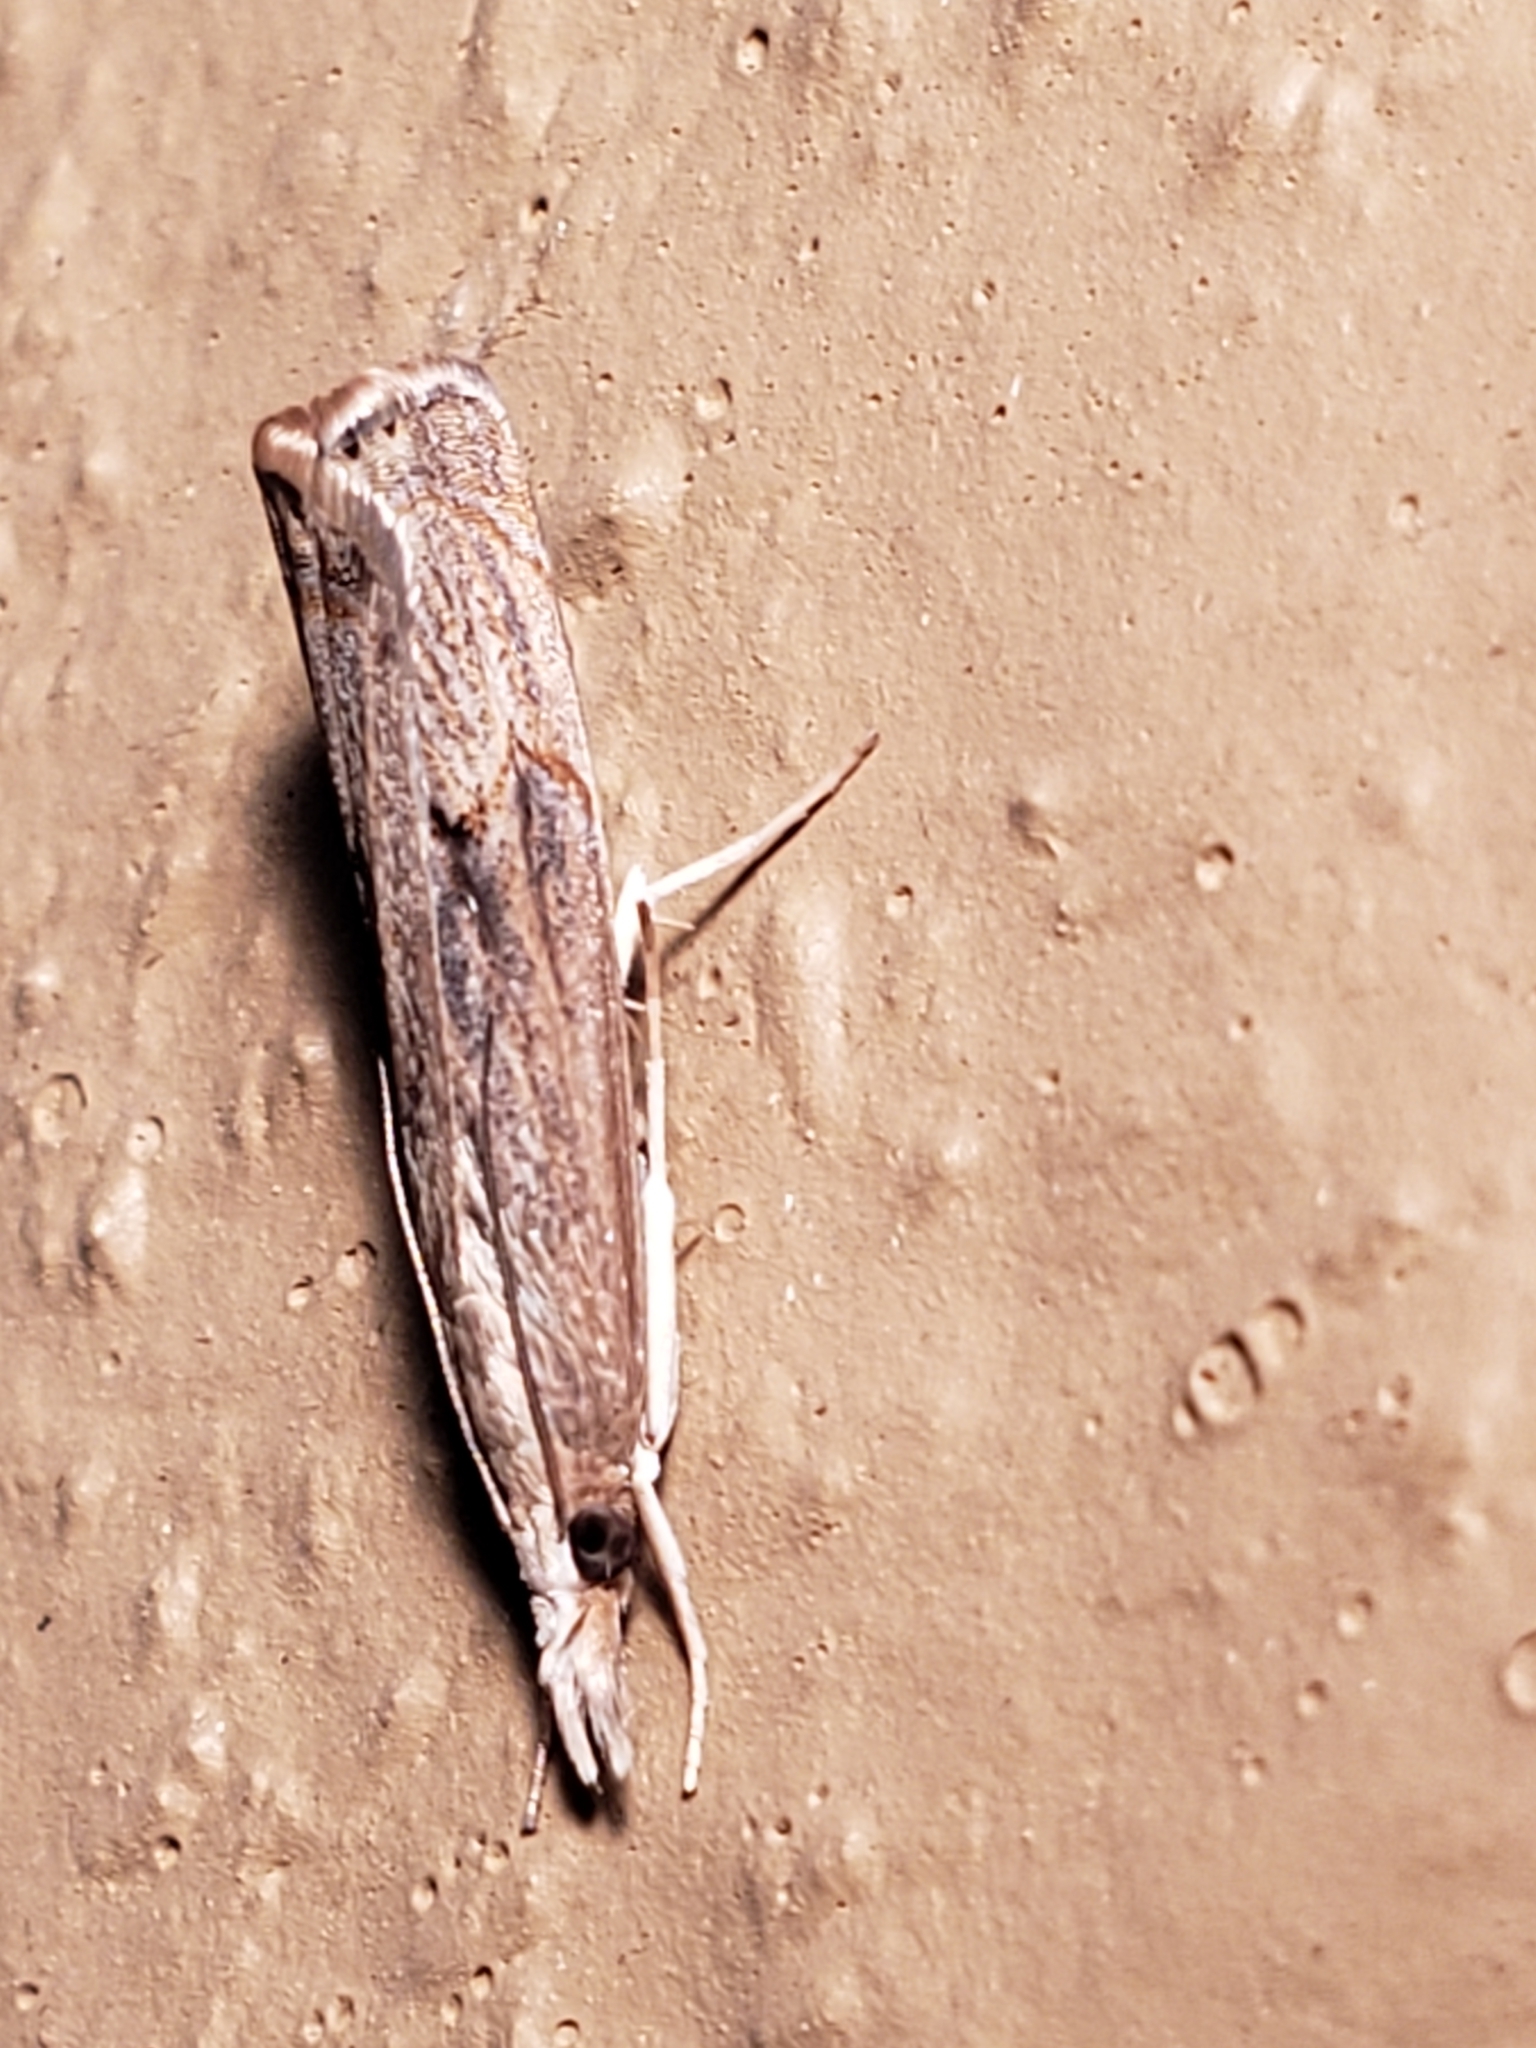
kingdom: Animalia
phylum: Arthropoda
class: Insecta
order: Lepidoptera
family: Crambidae
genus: Parapediasia
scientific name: Parapediasia teterellus
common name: Bluegrass webworm moth
